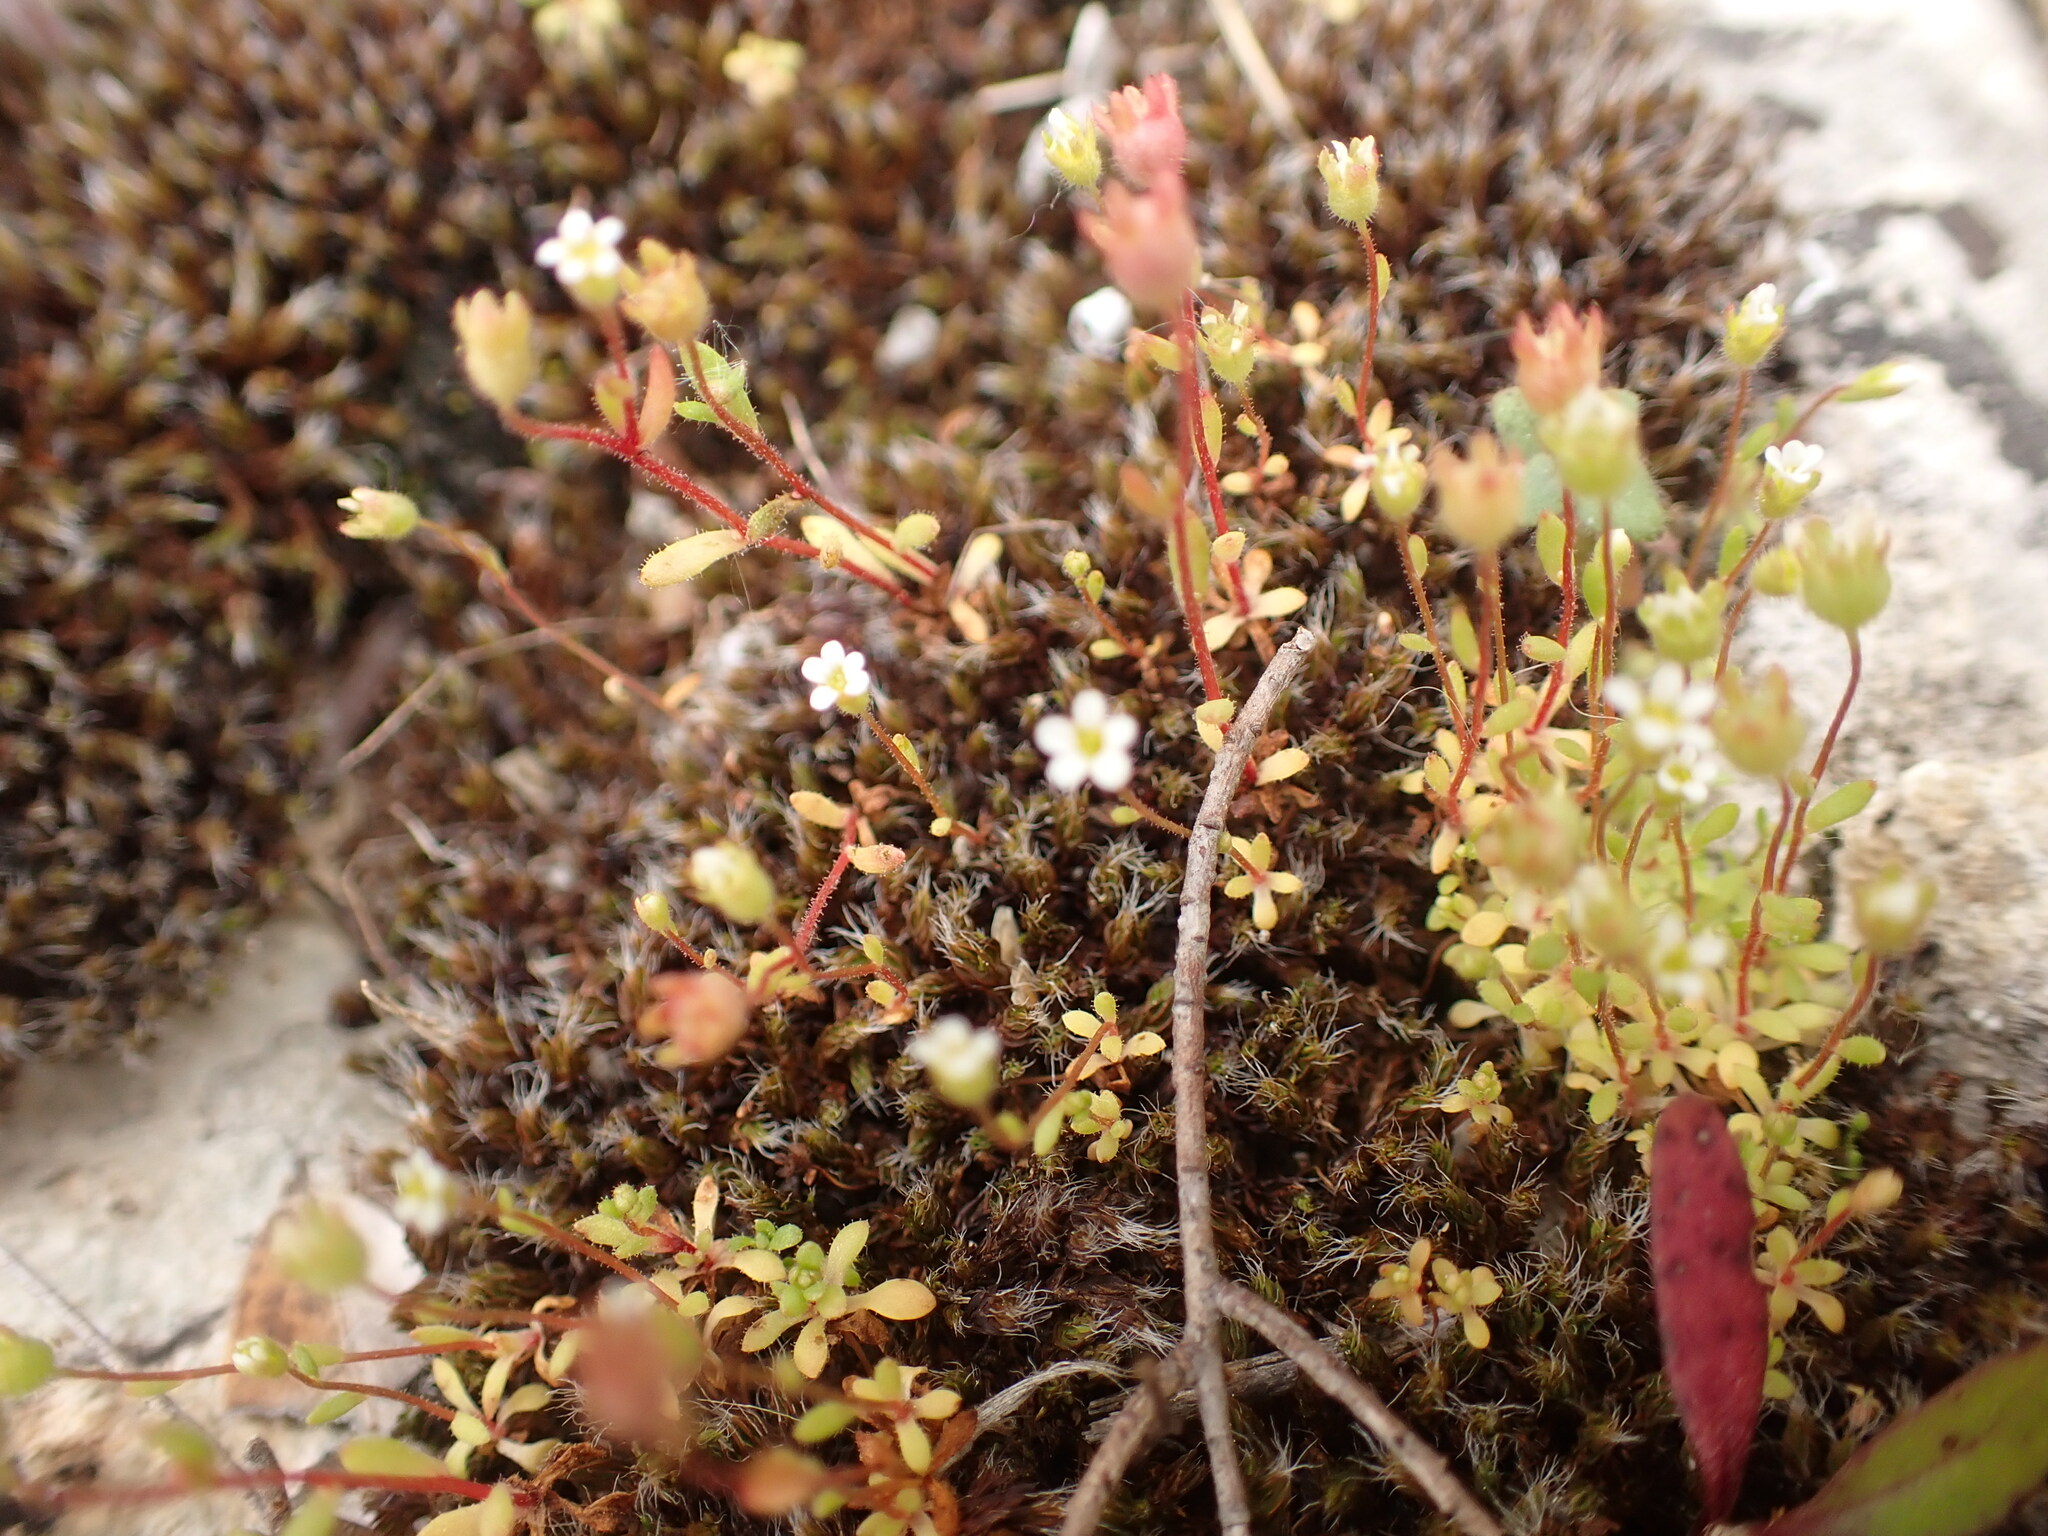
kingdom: Plantae
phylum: Tracheophyta
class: Magnoliopsida
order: Saxifragales
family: Saxifragaceae
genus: Saxifraga
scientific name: Saxifraga tridactylites
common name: Rue-leaved saxifrage
